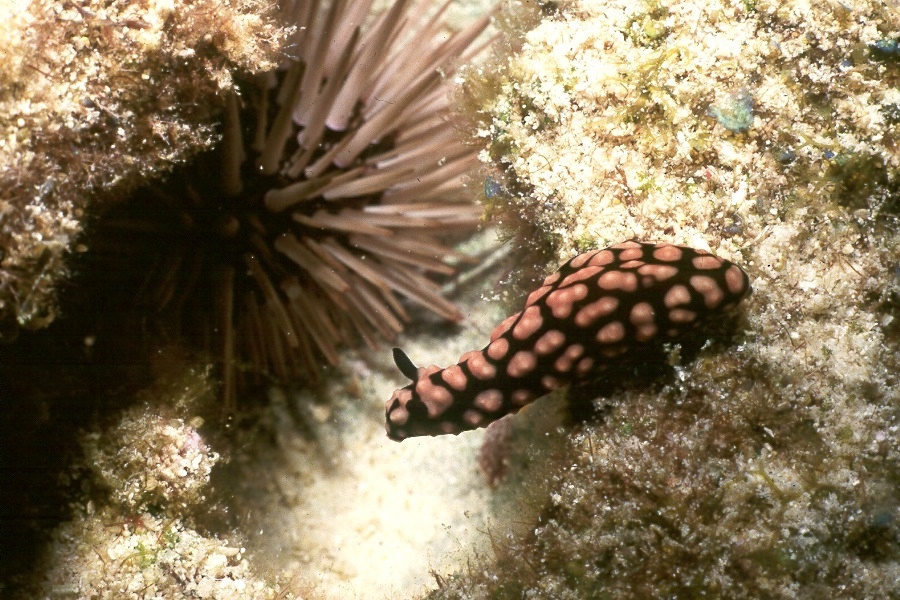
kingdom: Animalia
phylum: Mollusca
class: Gastropoda
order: Nudibranchia
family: Phyllidiidae
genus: Phyllidiella
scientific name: Phyllidiella pustulosa
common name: Pustular phyllidia
